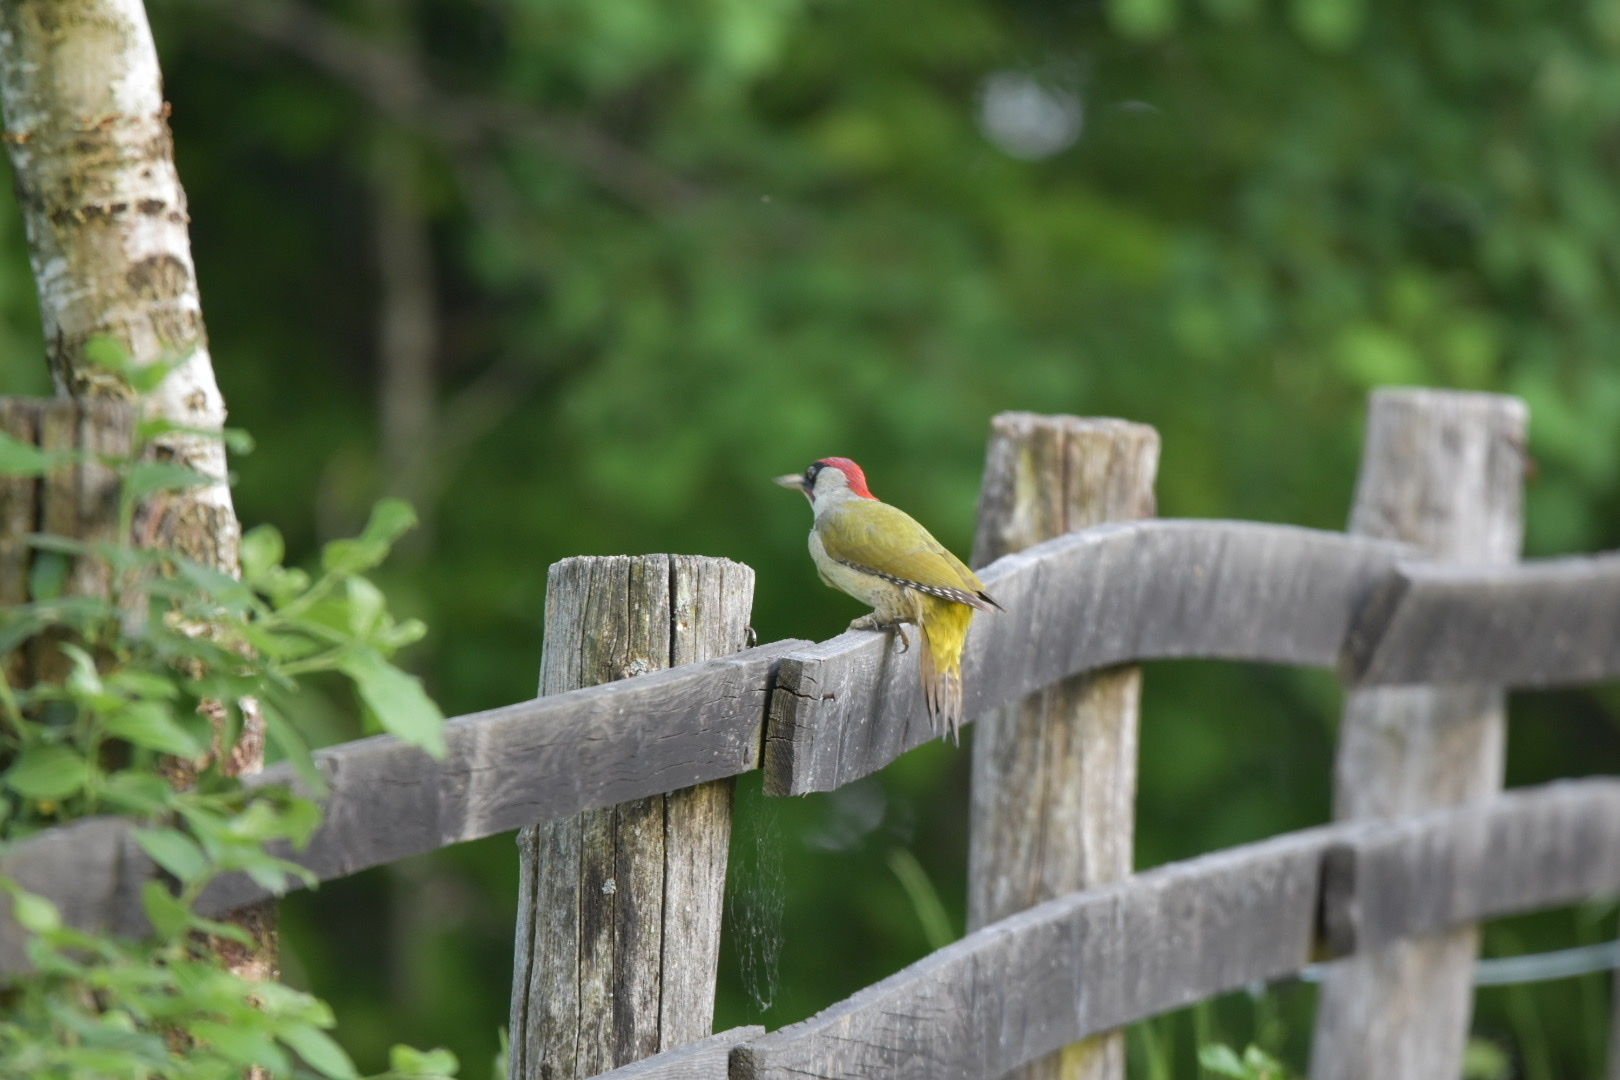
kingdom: Animalia
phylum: Chordata
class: Aves
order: Piciformes
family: Picidae
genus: Picus
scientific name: Picus viridis
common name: European green woodpecker
